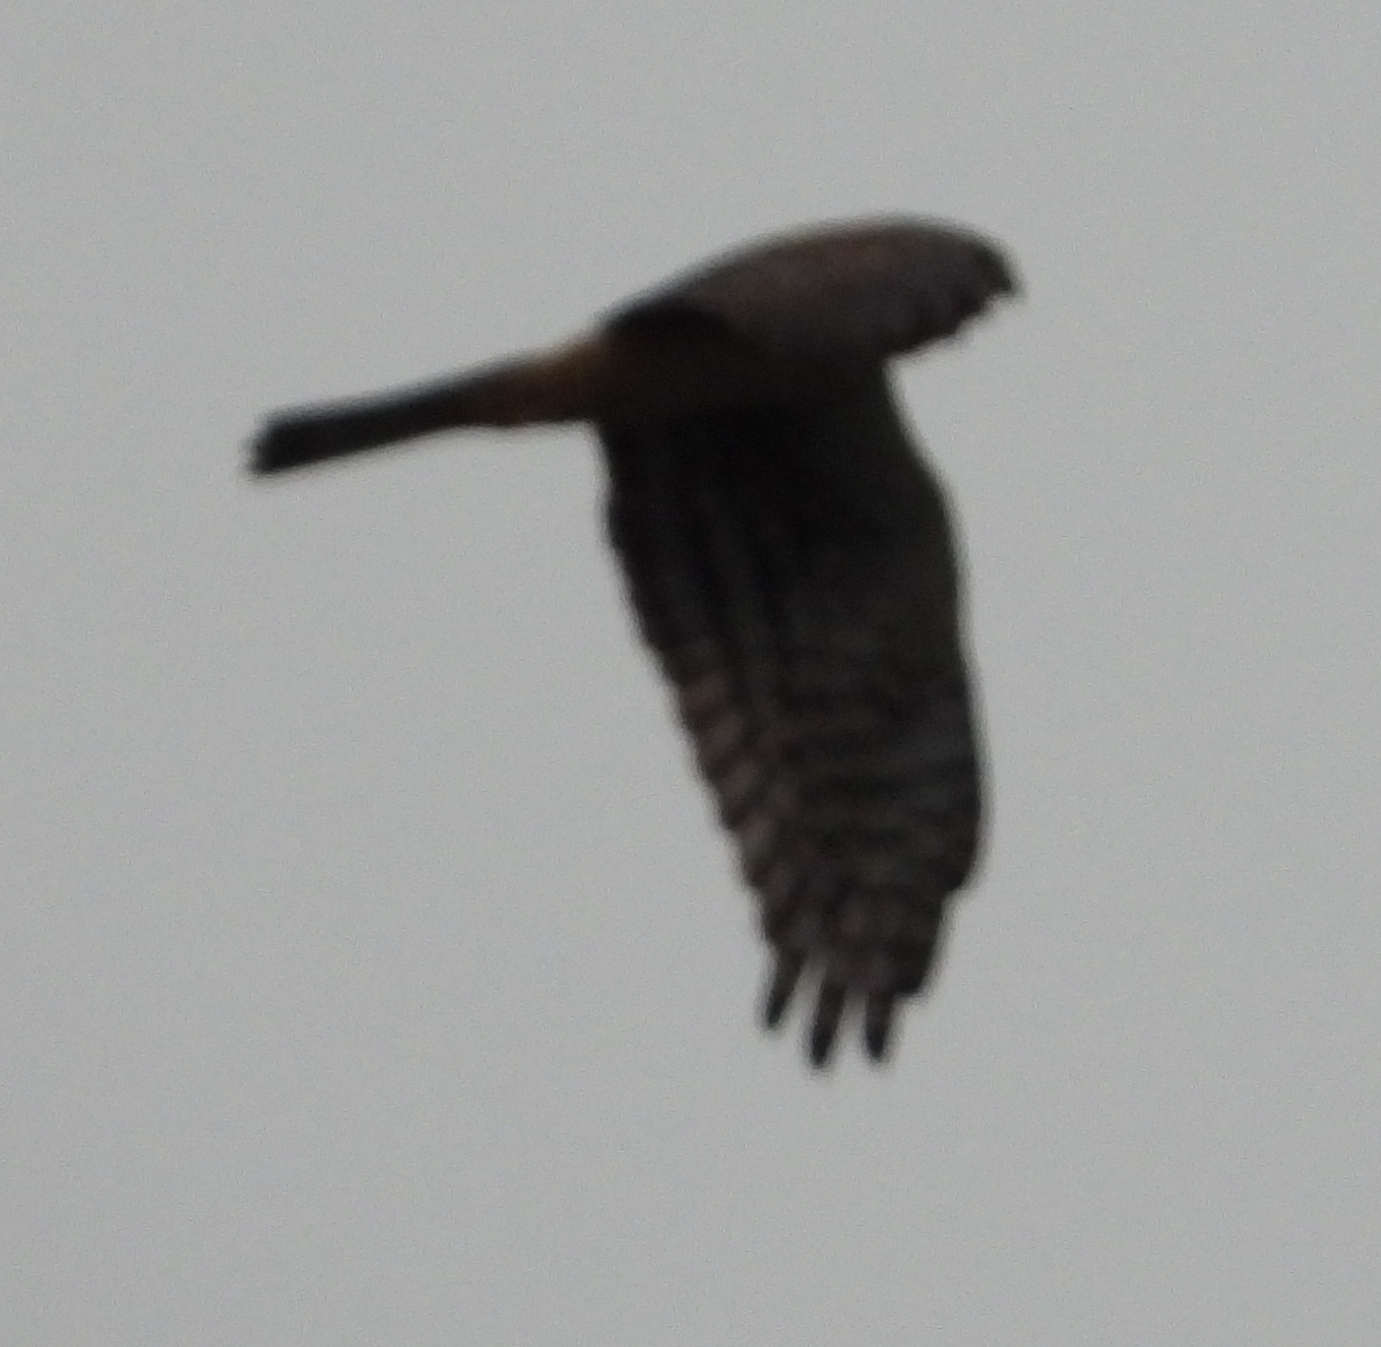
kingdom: Animalia
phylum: Chordata
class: Aves
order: Accipitriformes
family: Accipitridae
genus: Circus
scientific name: Circus cyaneus
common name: Hen harrier
